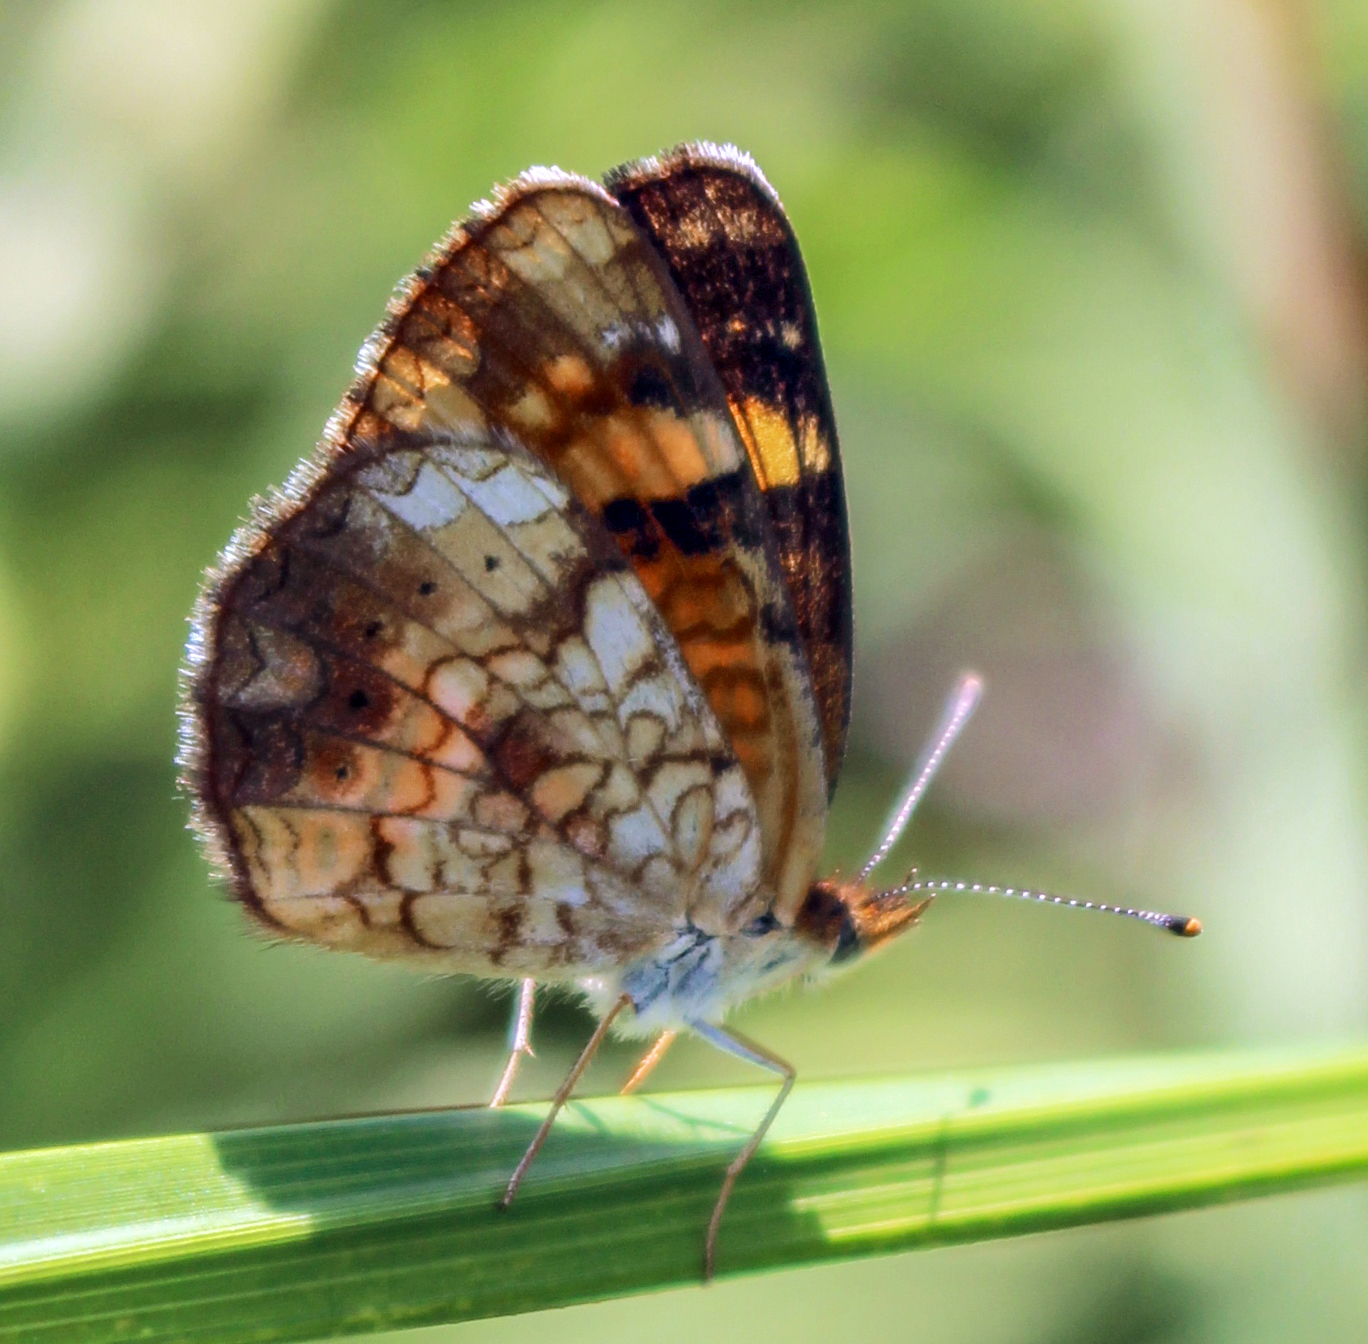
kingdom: Animalia
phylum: Arthropoda
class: Insecta
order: Lepidoptera
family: Nymphalidae
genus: Phyciodes
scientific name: Phyciodes tharos
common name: Pearl crescent
